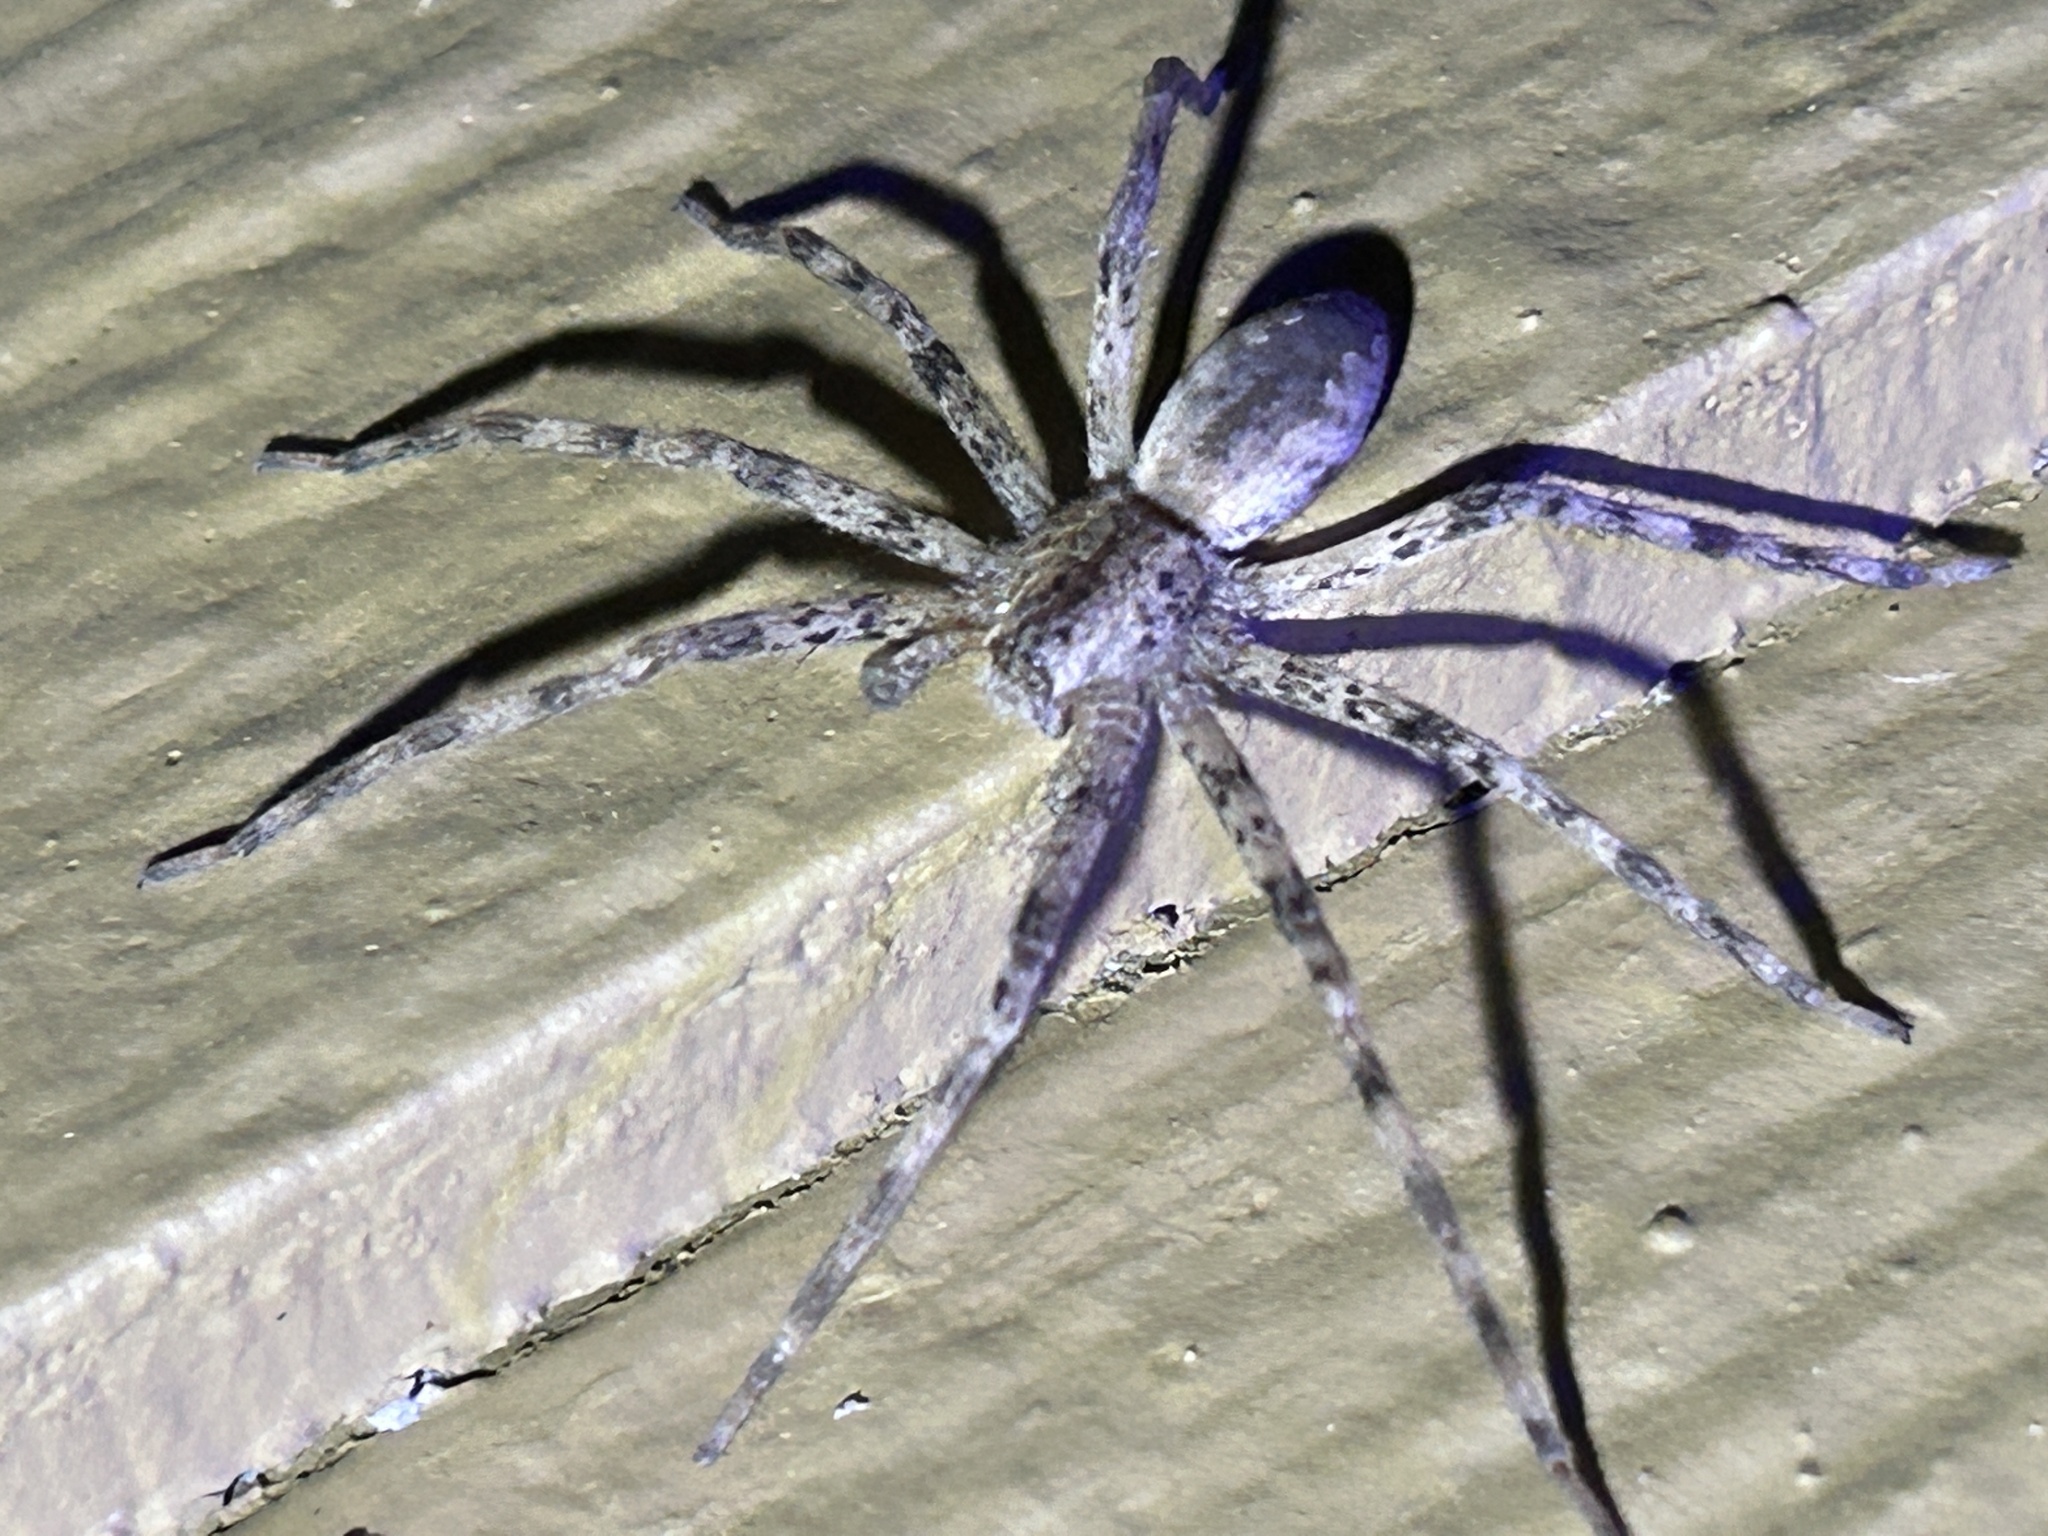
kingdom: Animalia
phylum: Arthropoda
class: Arachnida
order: Araneae
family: Pisauridae
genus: Pisaurina
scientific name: Pisaurina mira
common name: American nursery web spider
